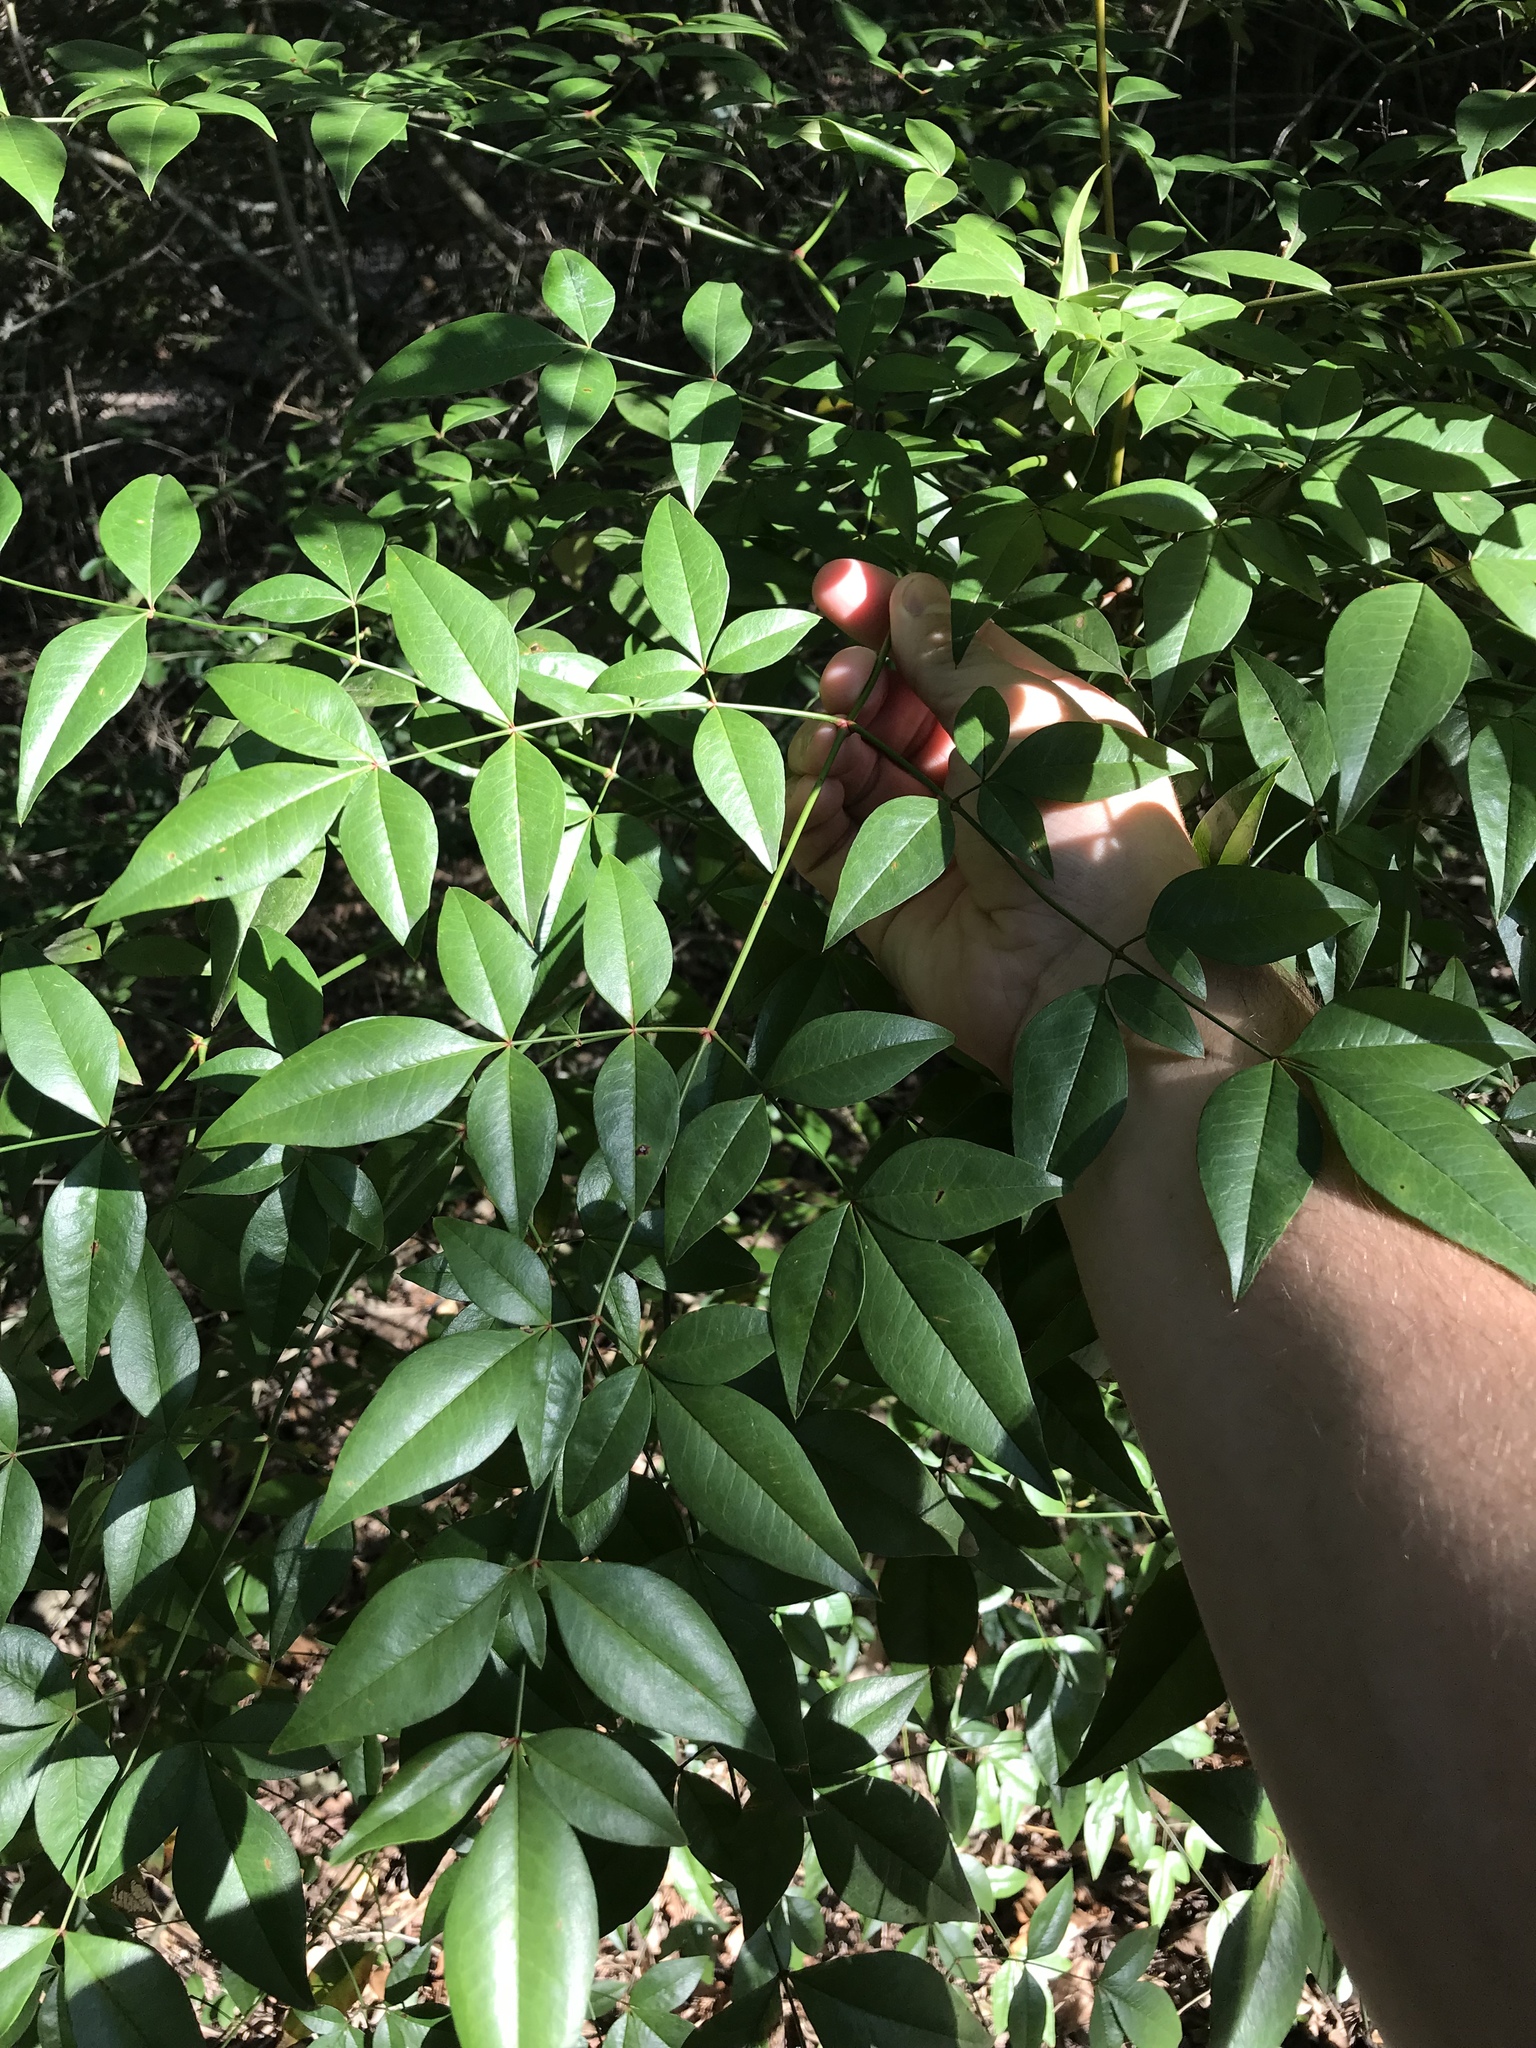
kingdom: Plantae
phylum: Tracheophyta
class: Magnoliopsida
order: Ranunculales
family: Berberidaceae
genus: Nandina
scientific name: Nandina domestica
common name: Sacred bamboo
